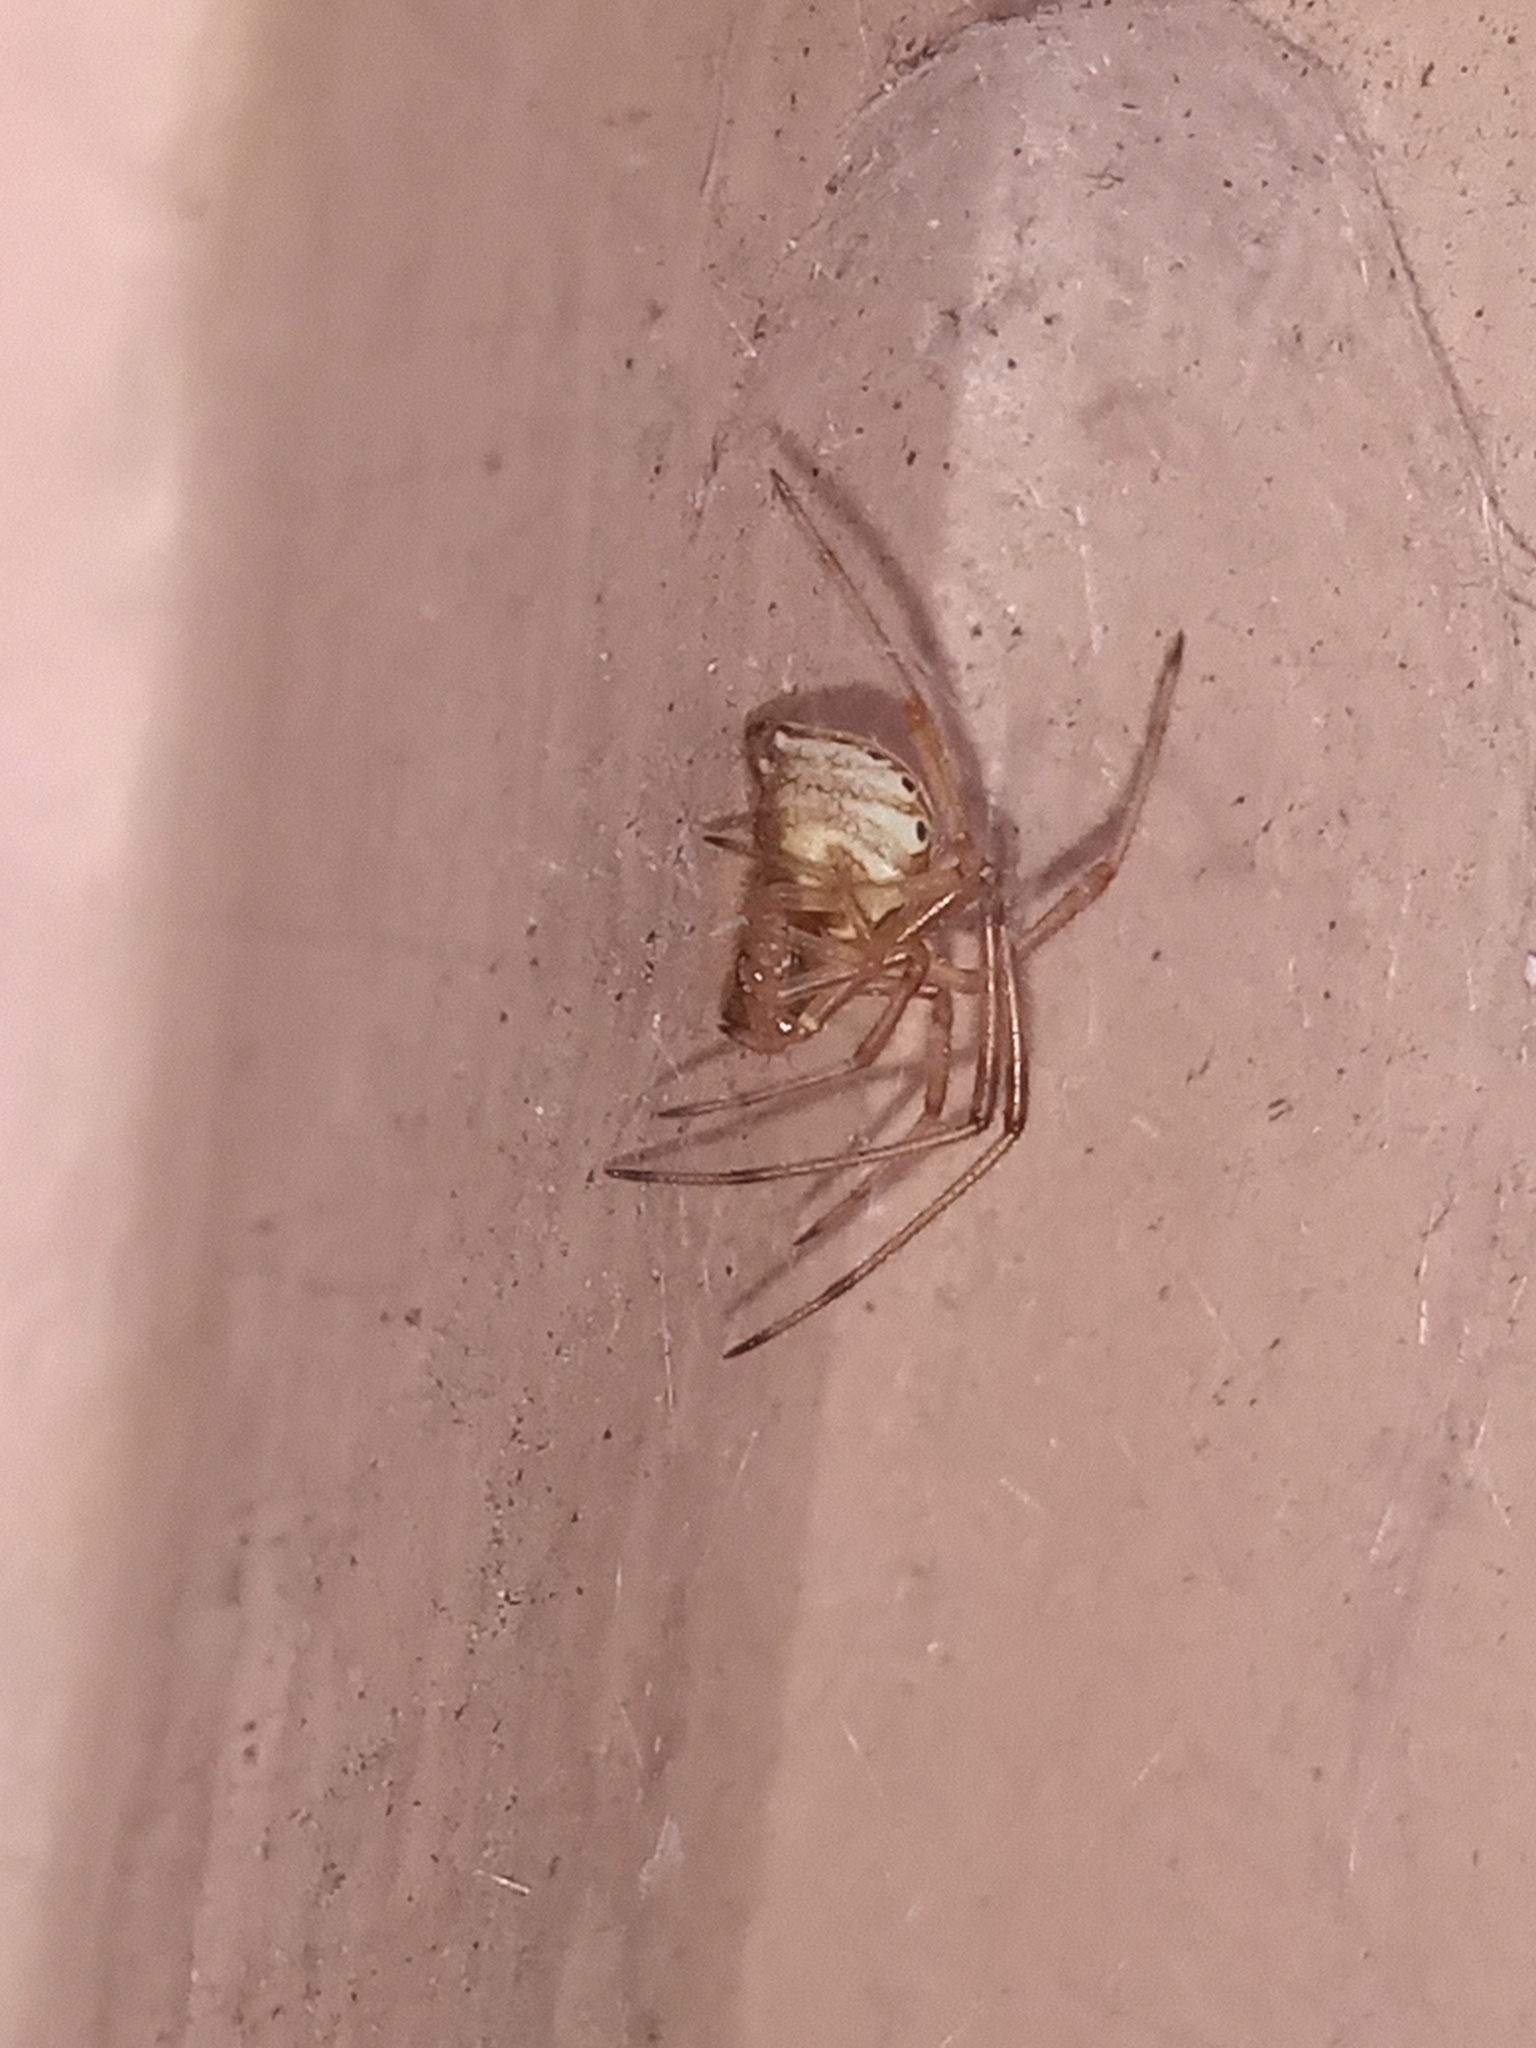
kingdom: Animalia
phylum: Arthropoda
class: Arachnida
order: Araneae
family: Theridiidae
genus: Latrodectus
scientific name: Latrodectus geometricus
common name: Brown widow spider
